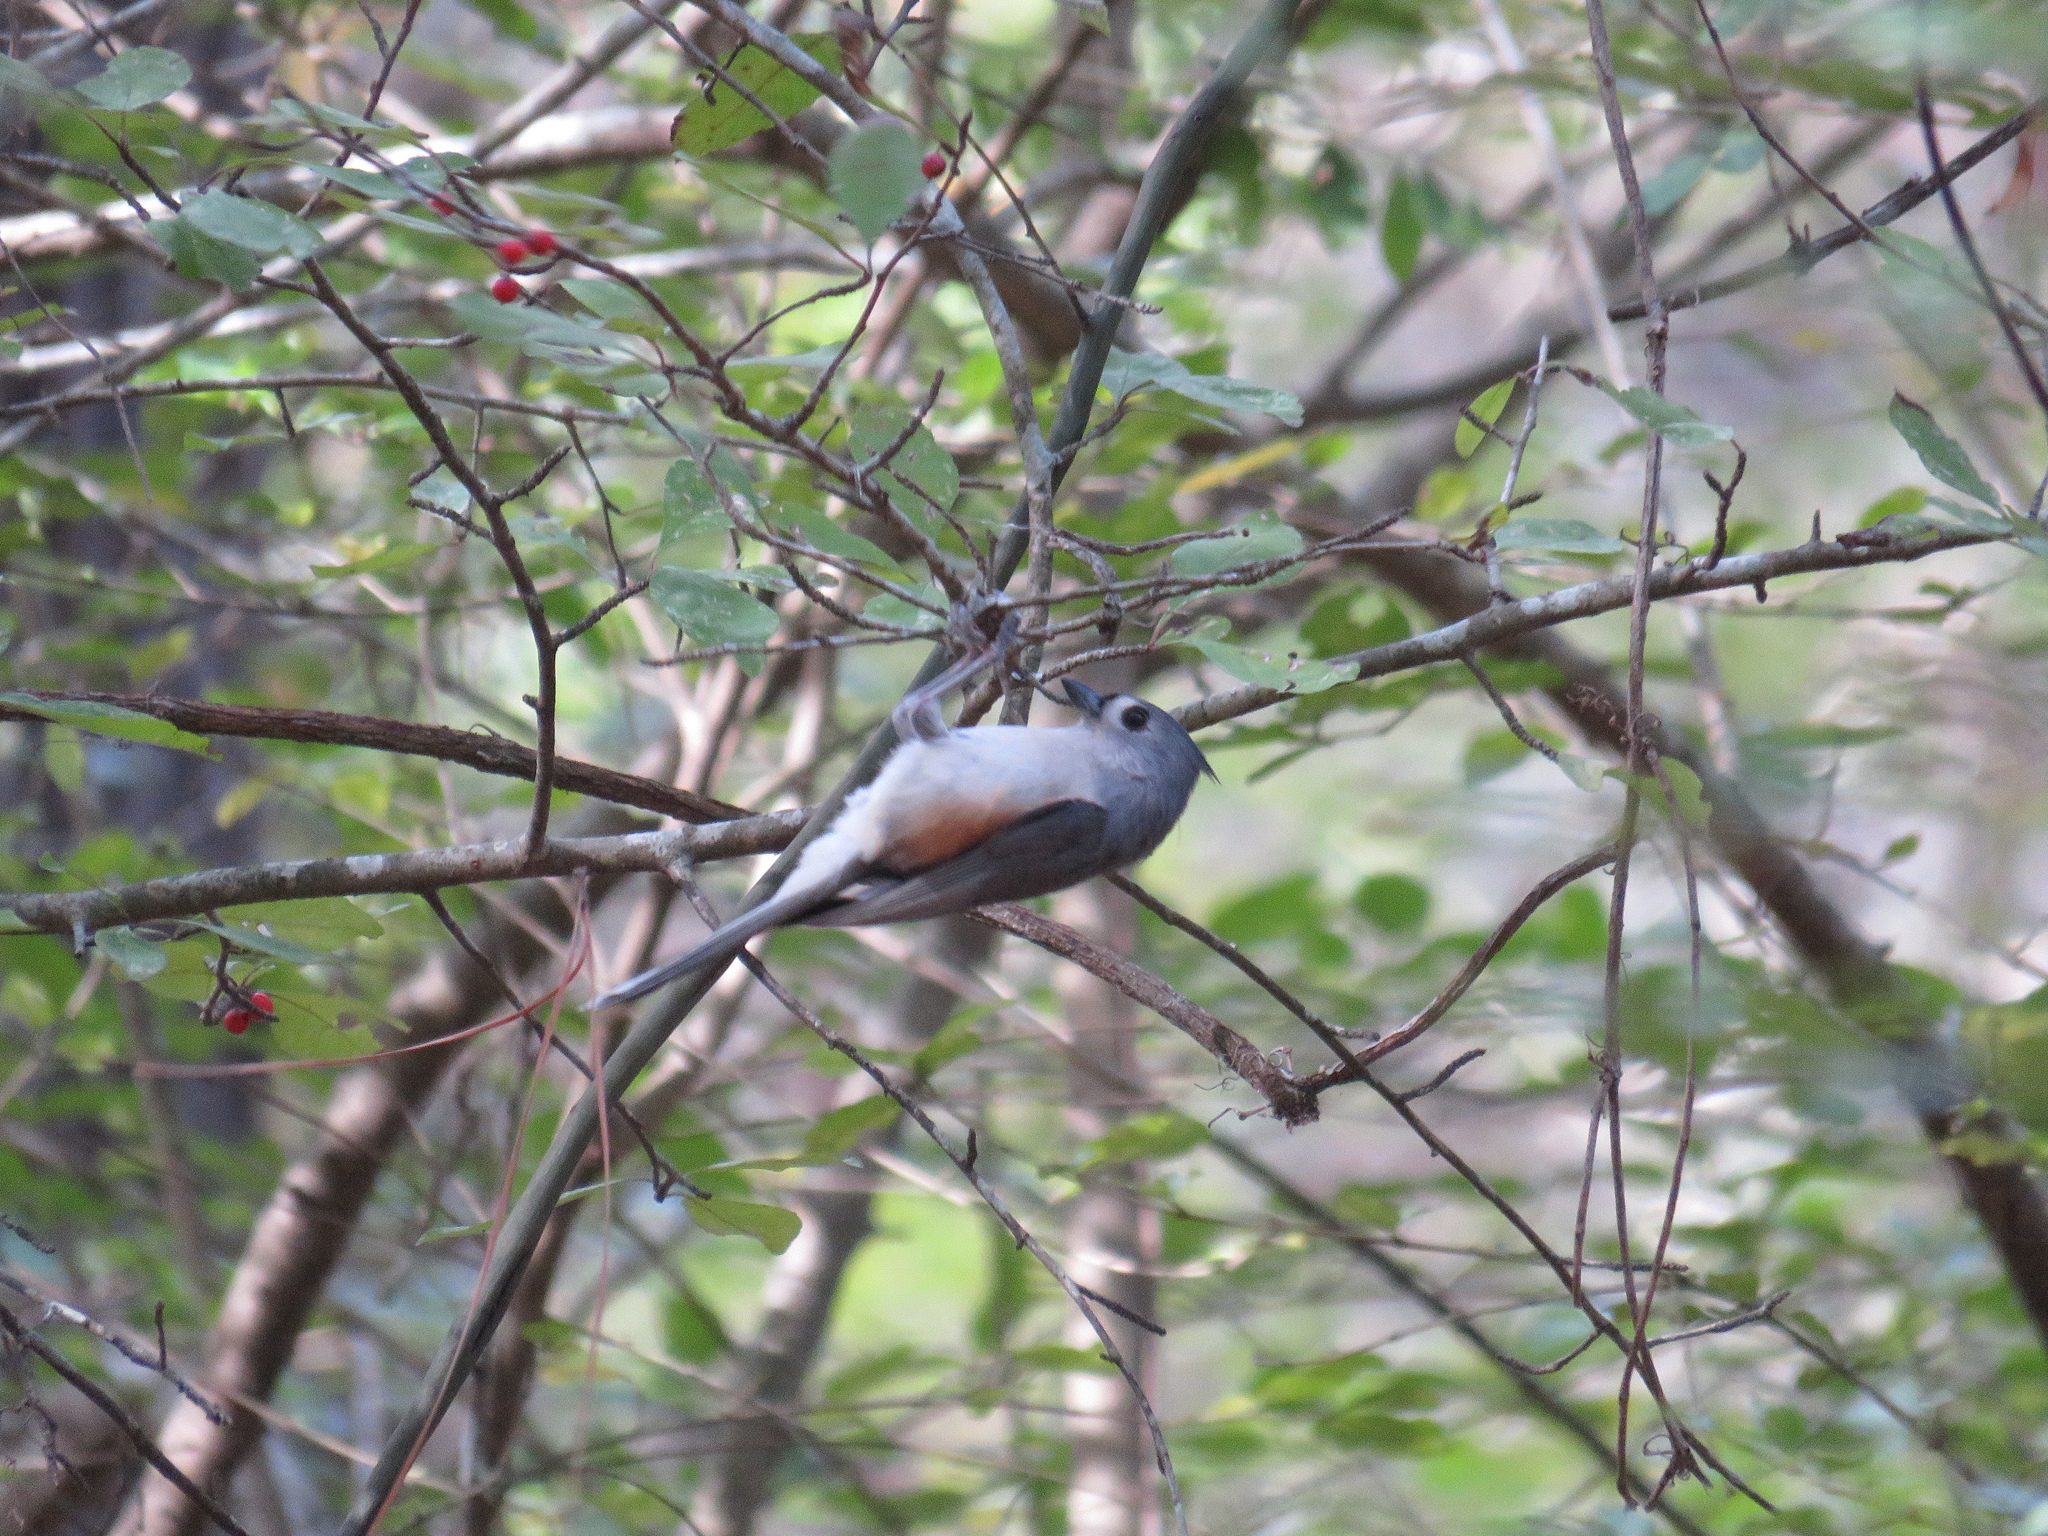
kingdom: Animalia
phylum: Chordata
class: Aves
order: Passeriformes
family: Paridae
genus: Baeolophus
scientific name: Baeolophus bicolor
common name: Tufted titmouse
